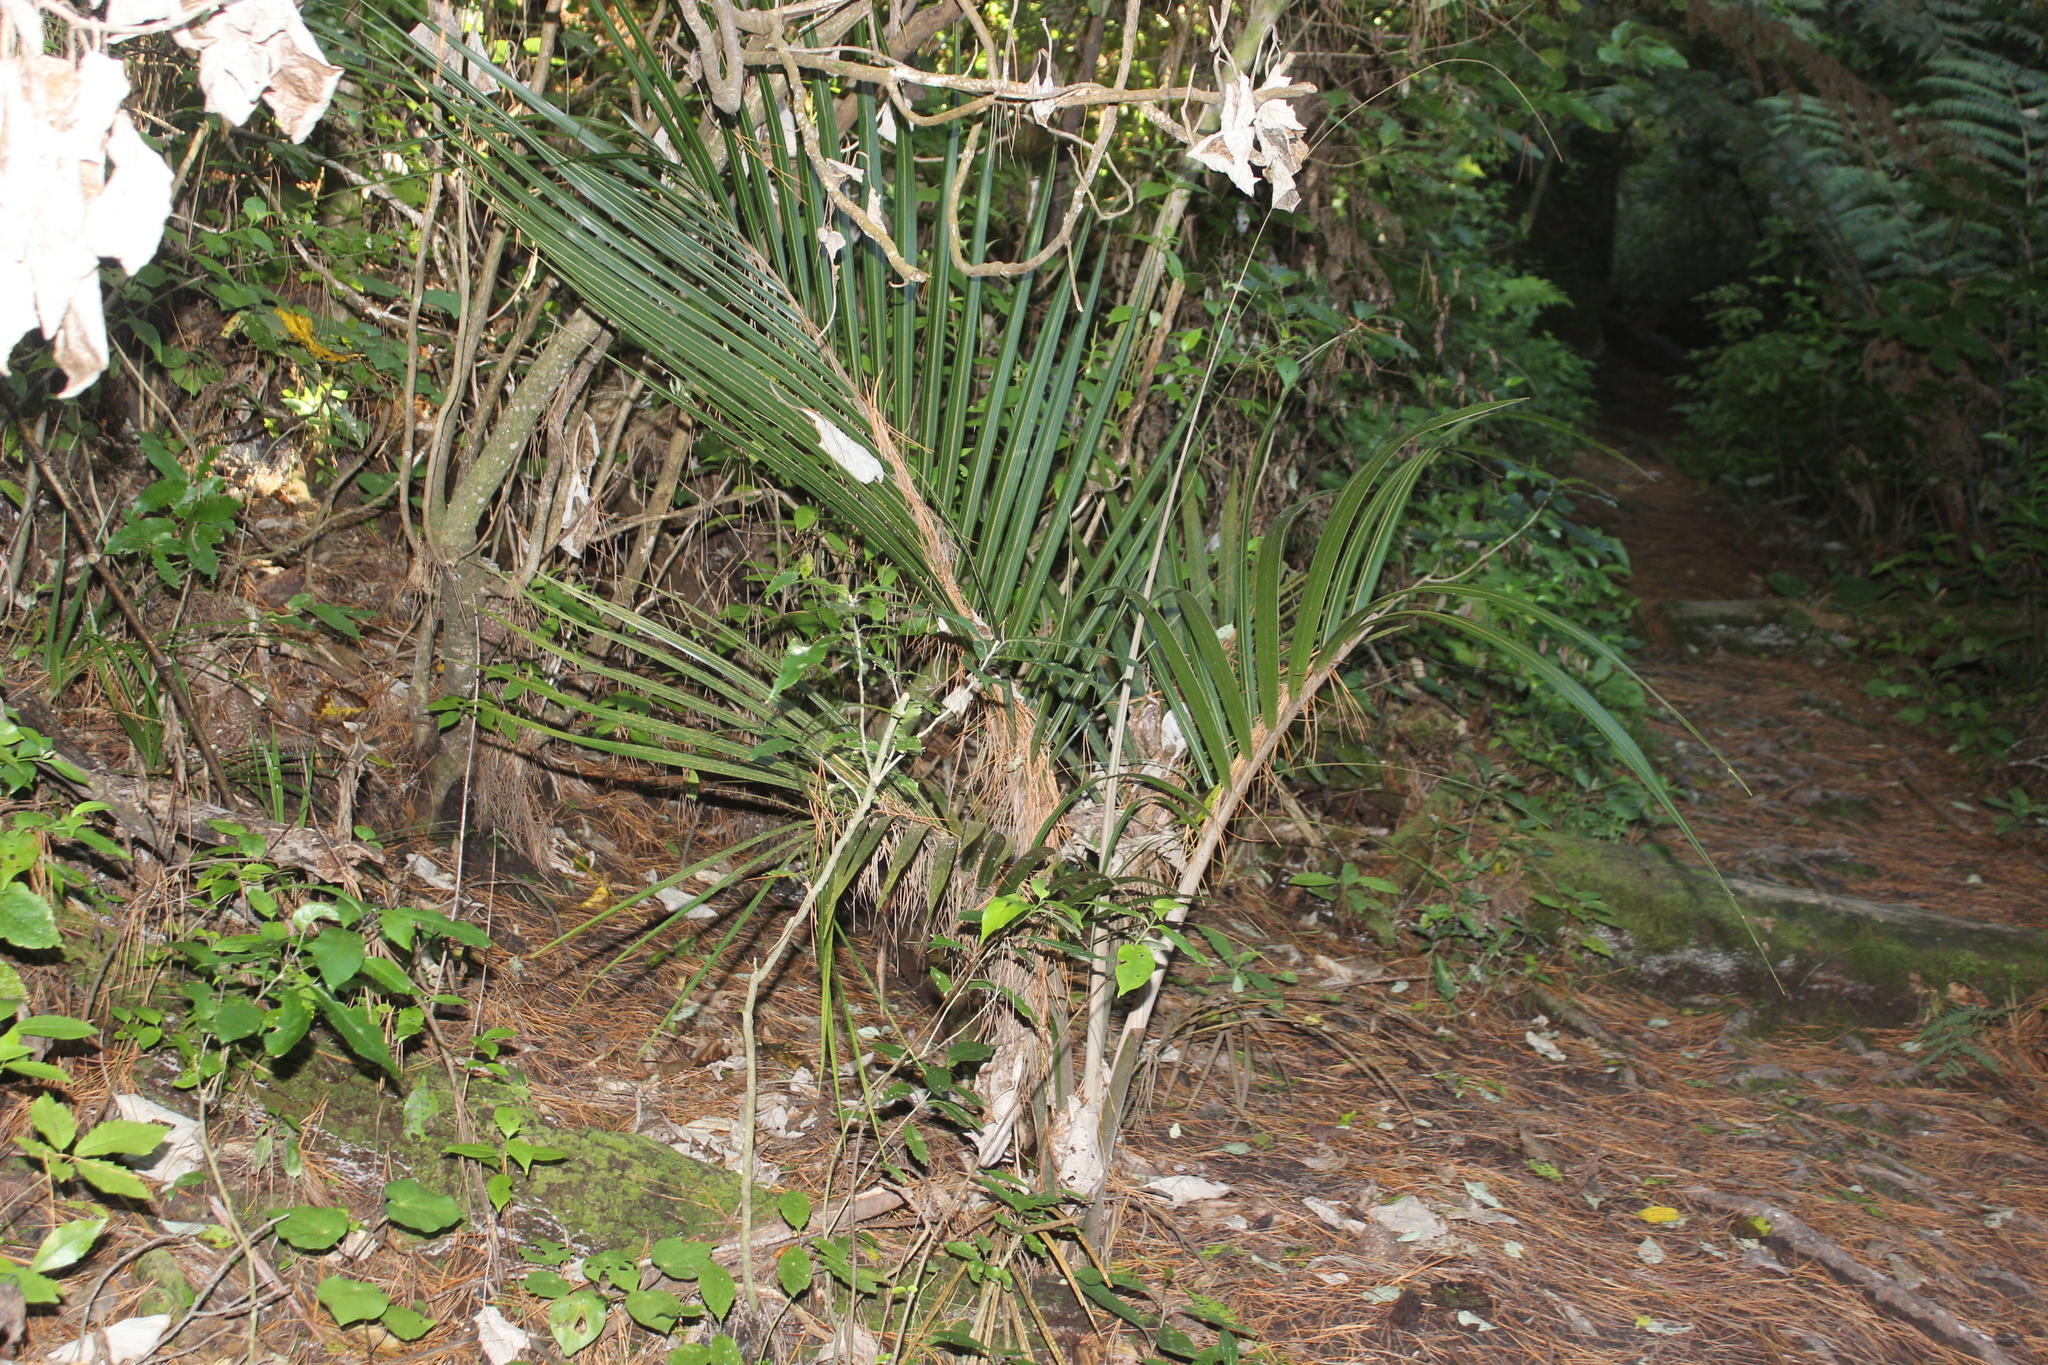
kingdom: Plantae
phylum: Tracheophyta
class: Liliopsida
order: Arecales
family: Arecaceae
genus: Rhopalostylis
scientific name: Rhopalostylis sapida
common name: Feather-duster palm
